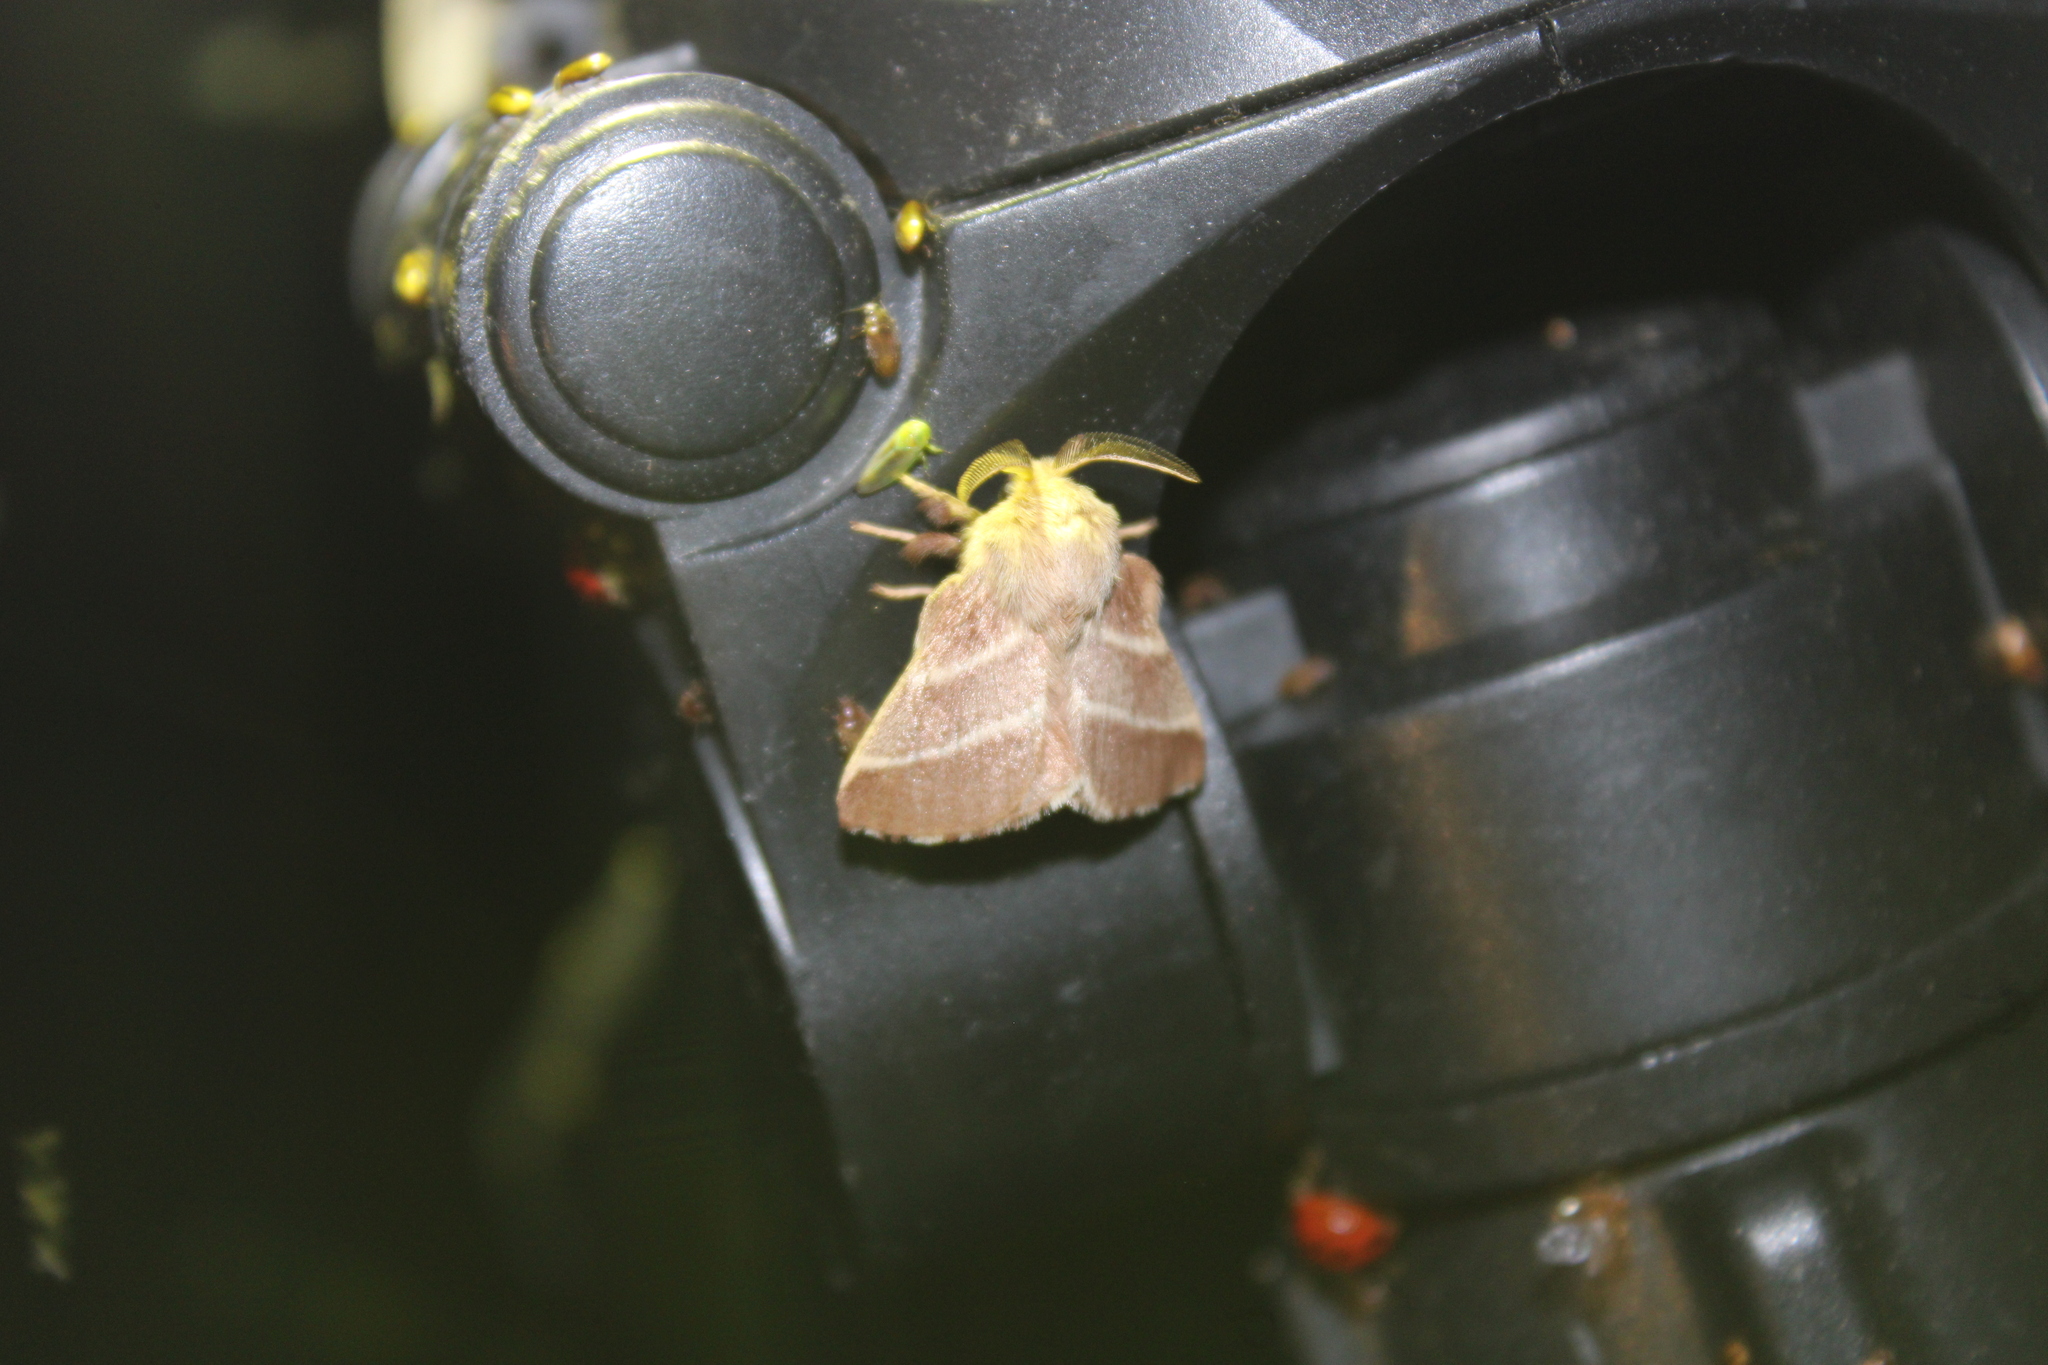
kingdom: Animalia
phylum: Arthropoda
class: Insecta
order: Lepidoptera
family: Lasiocampidae
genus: Malacosoma
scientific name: Malacosoma americana
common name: Eastern tent caterpillar moth
